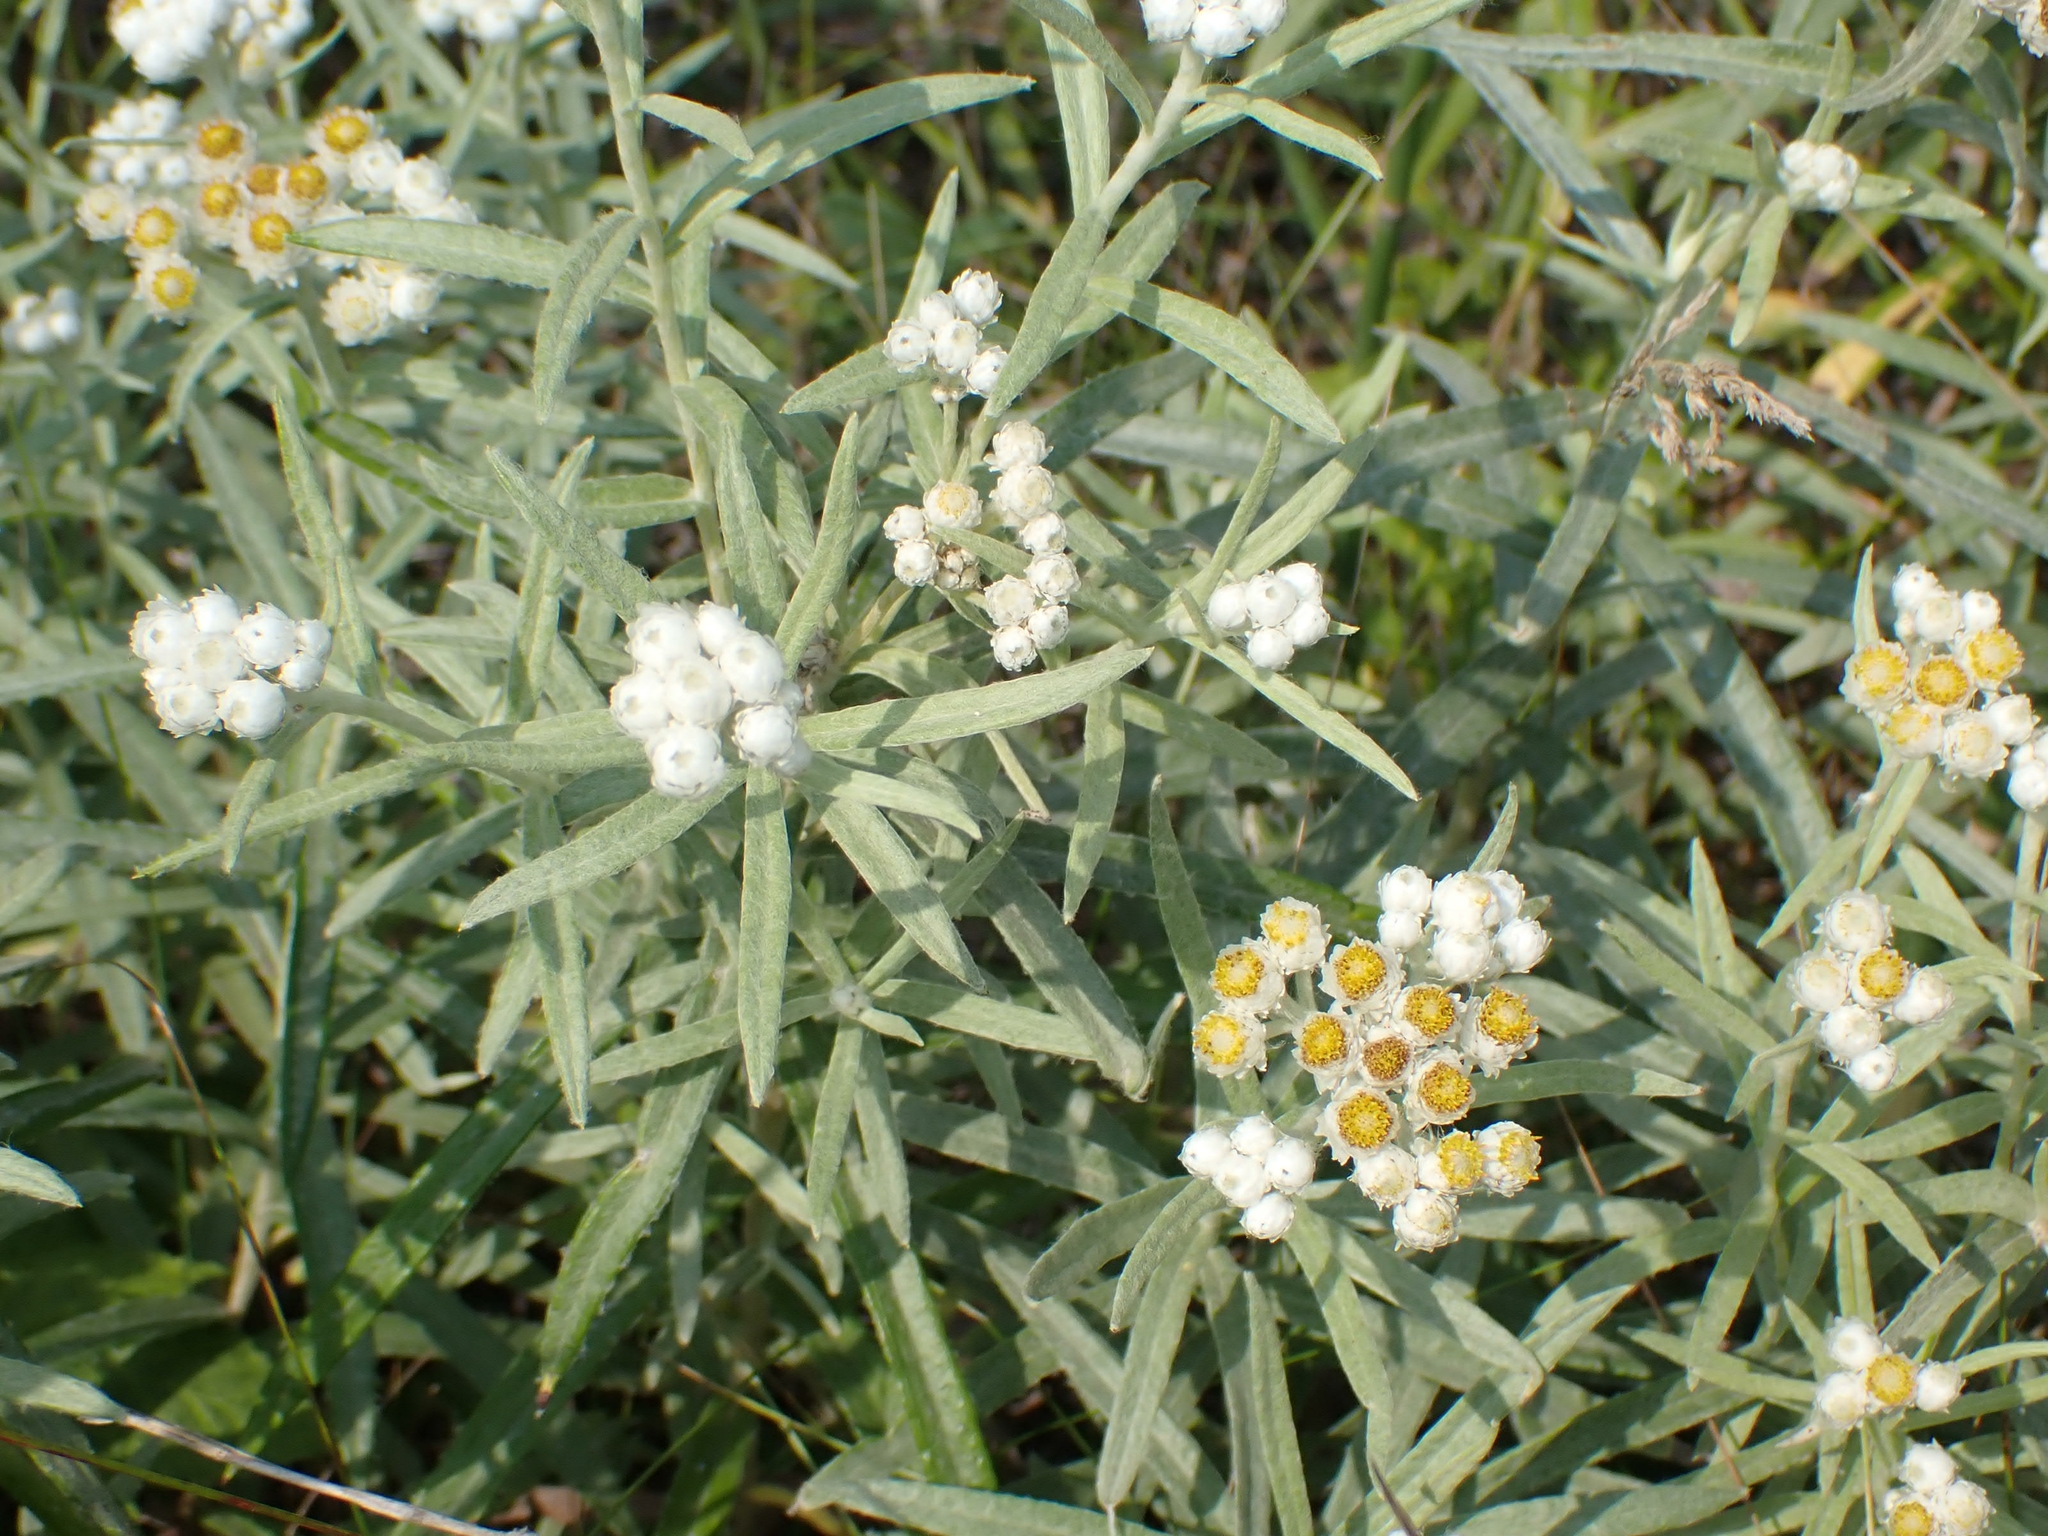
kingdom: Plantae
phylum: Tracheophyta
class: Magnoliopsida
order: Asterales
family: Asteraceae
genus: Anaphalis
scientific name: Anaphalis margaritacea
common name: Pearly everlasting
